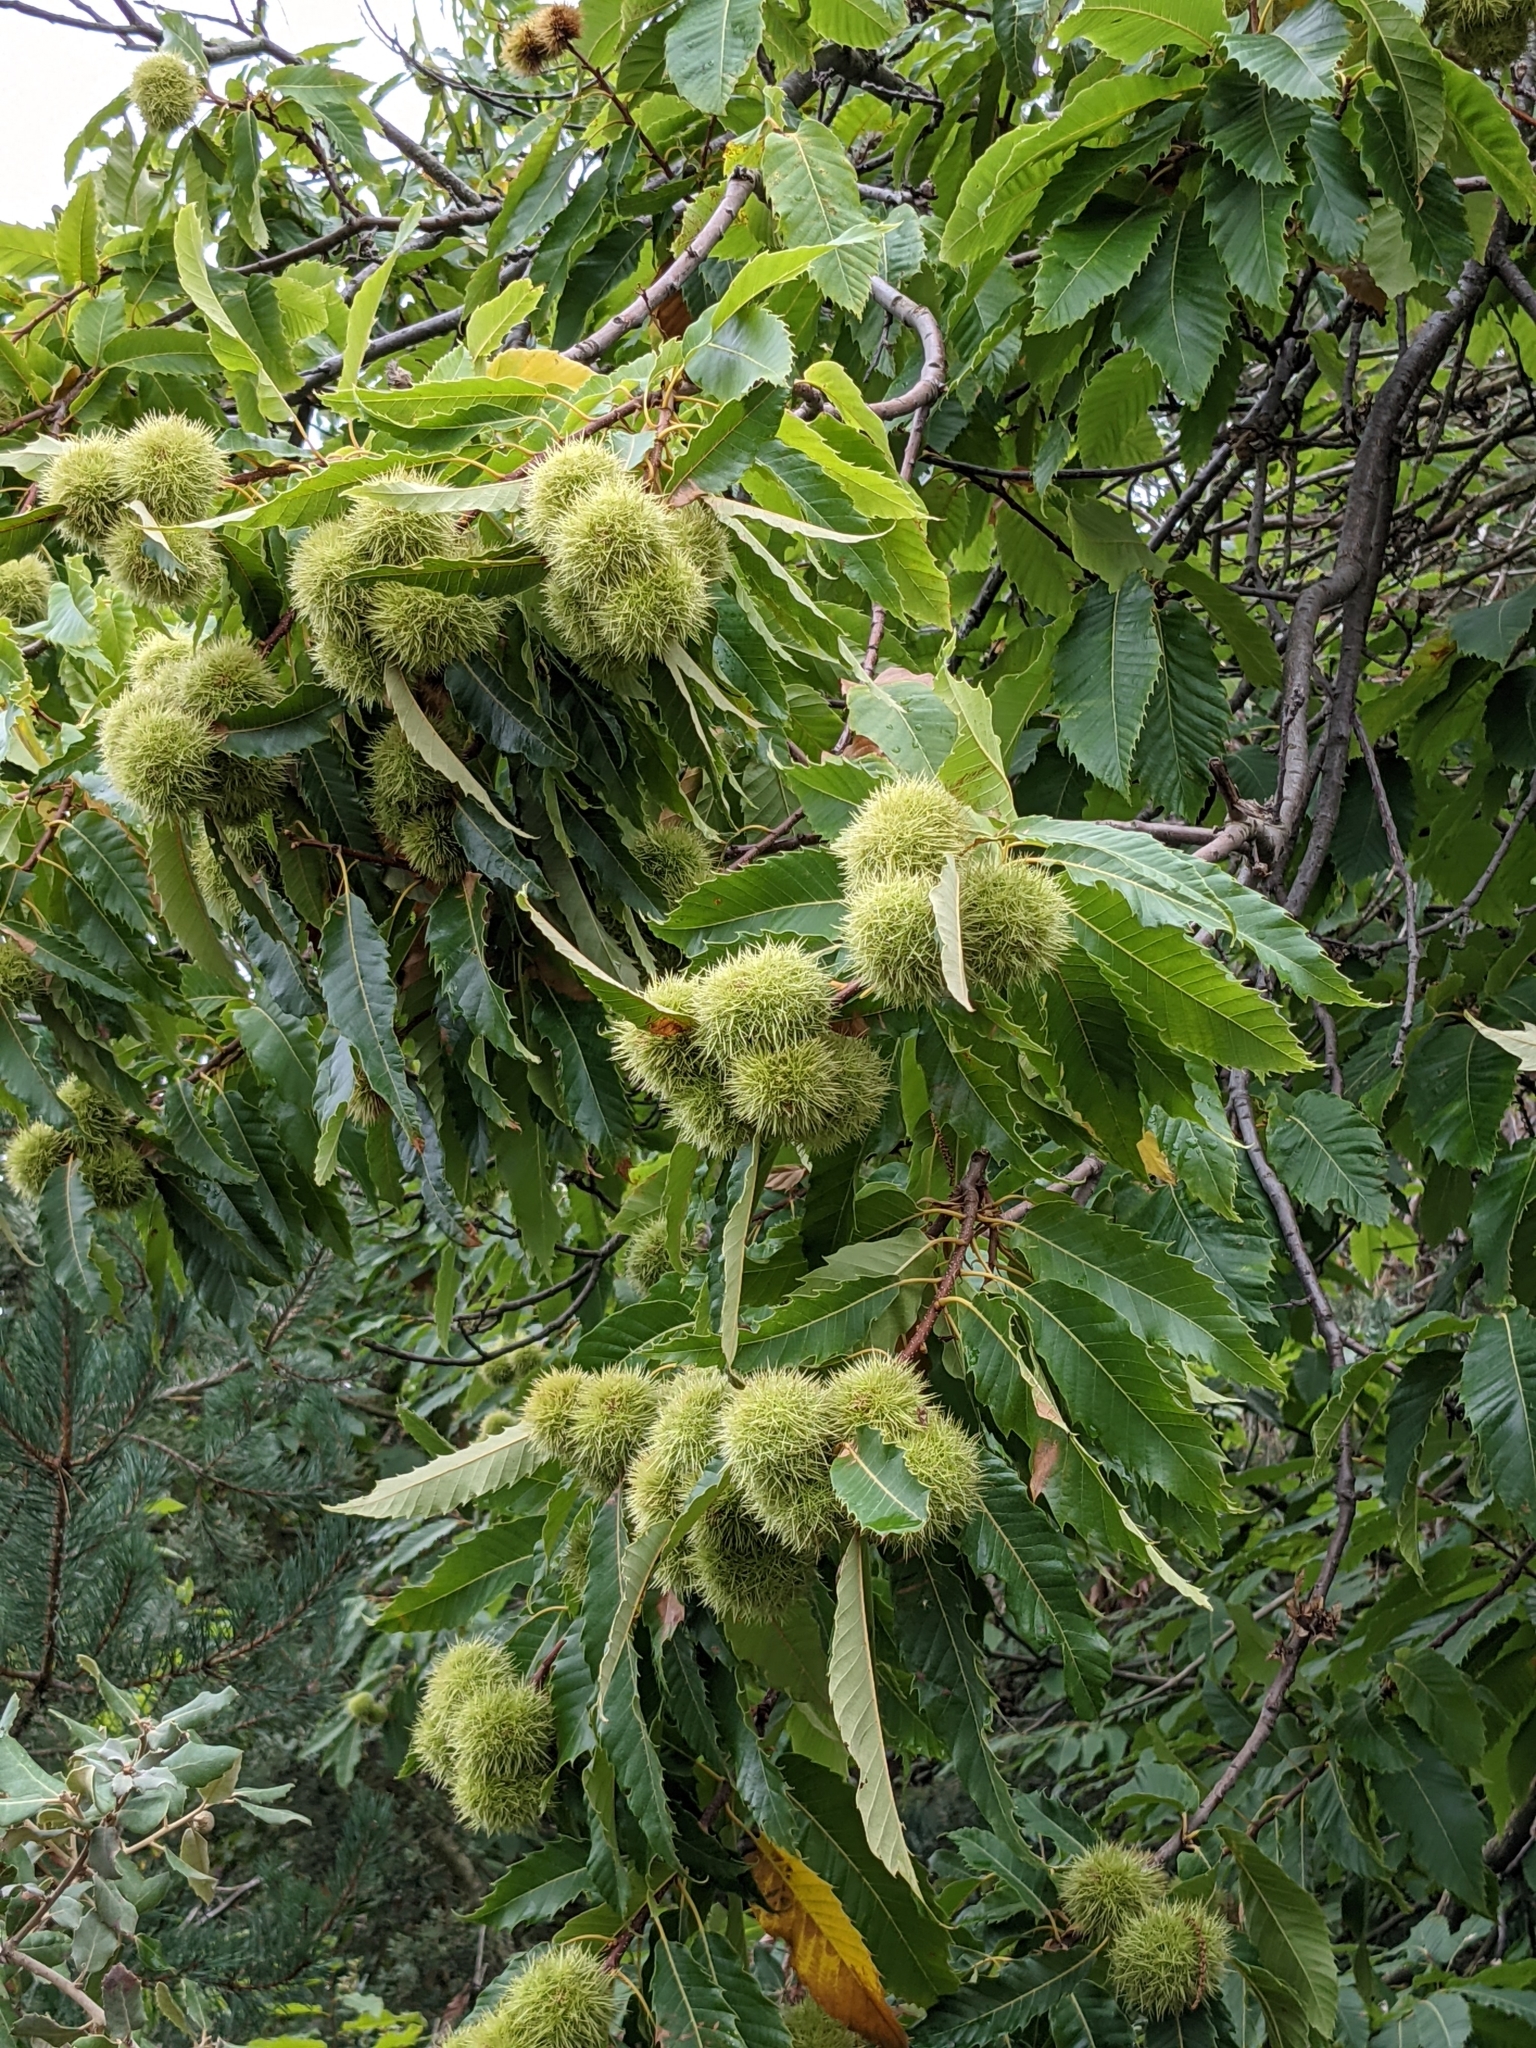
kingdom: Plantae
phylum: Tracheophyta
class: Magnoliopsida
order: Fagales
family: Fagaceae
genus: Castanea
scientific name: Castanea sativa
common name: Sweet chestnut
